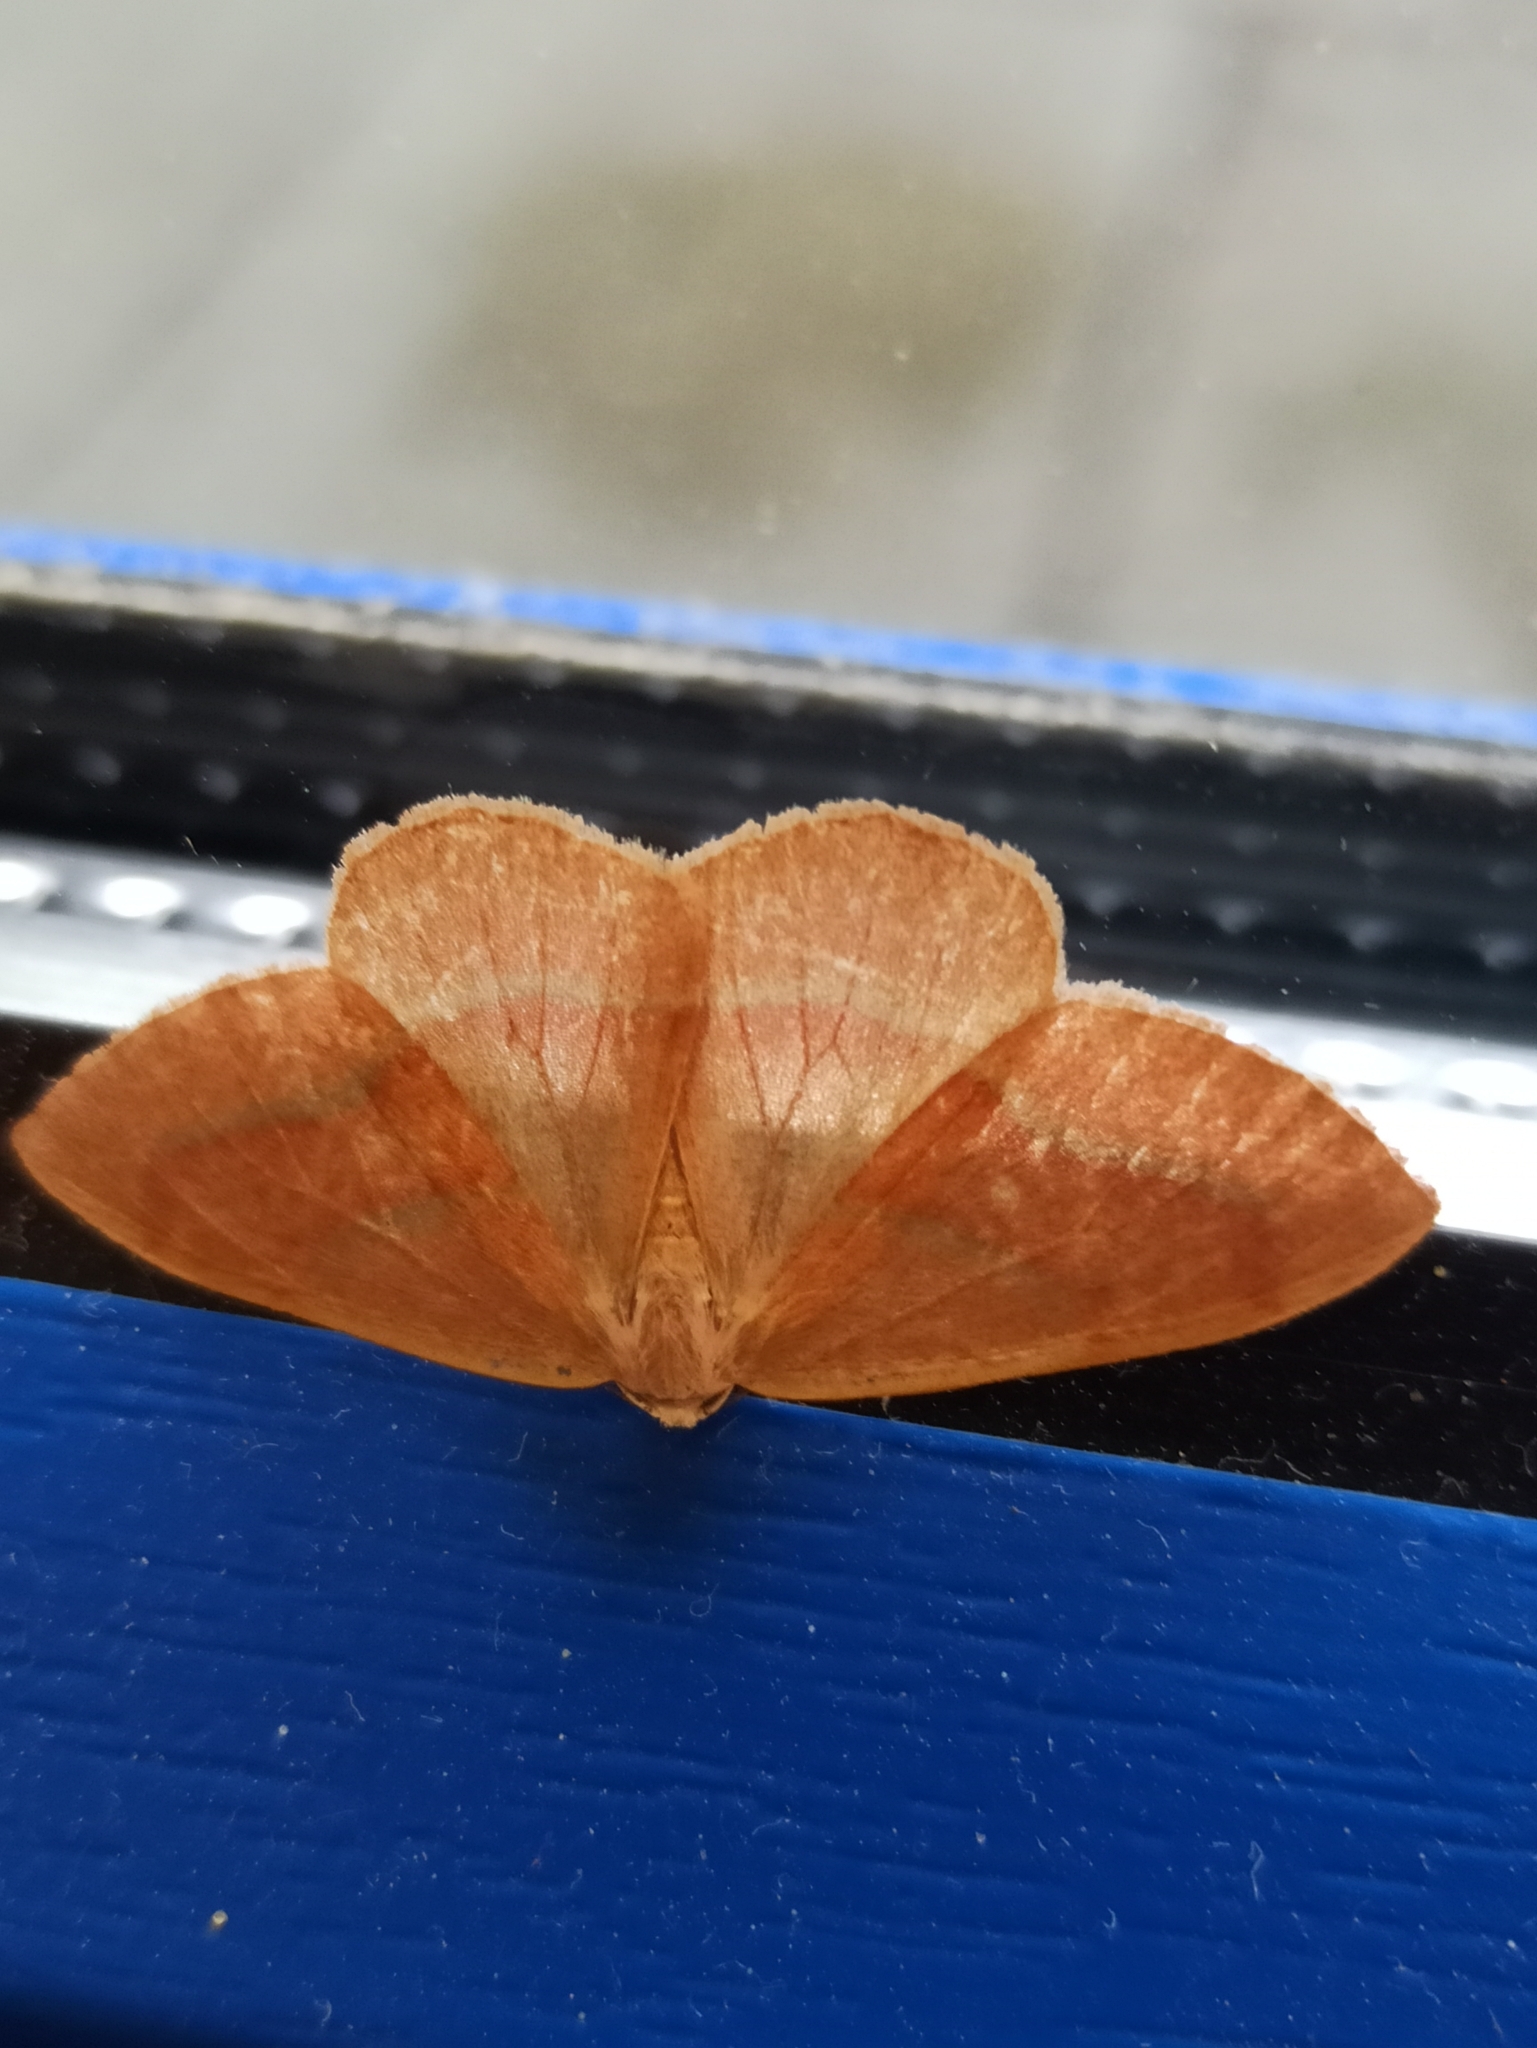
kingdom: Animalia
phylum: Arthropoda
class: Insecta
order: Lepidoptera
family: Geometridae
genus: Hylaea
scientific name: Hylaea fasciaria
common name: Barred red
